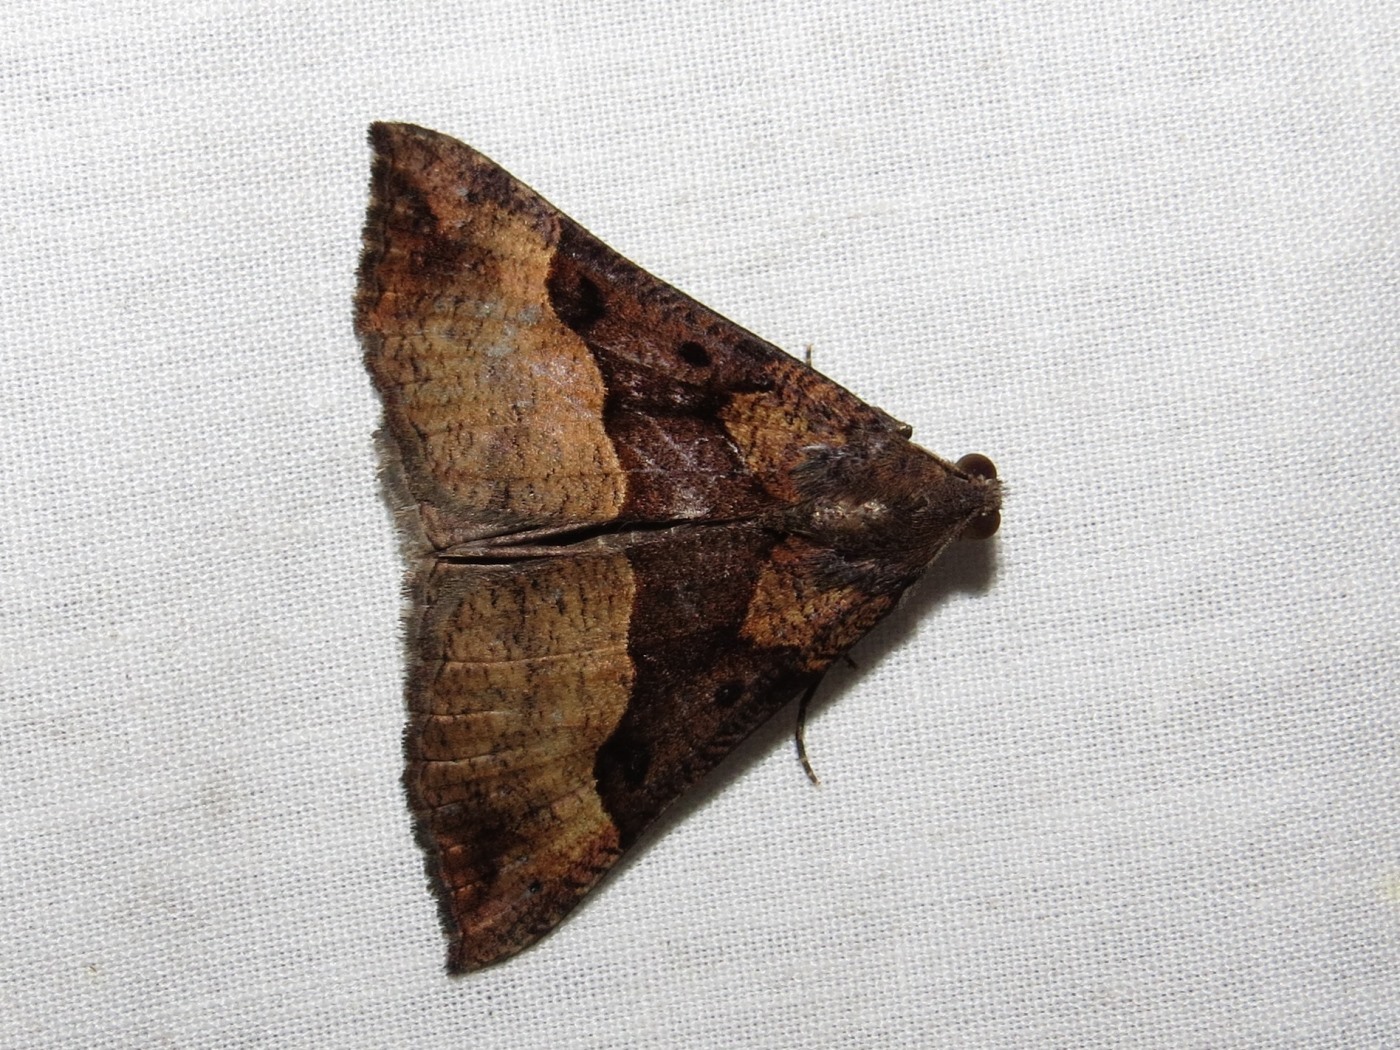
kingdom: Animalia
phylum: Arthropoda
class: Insecta
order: Lepidoptera
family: Erebidae
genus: Hypena
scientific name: Hypena edictalis
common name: Large snout
